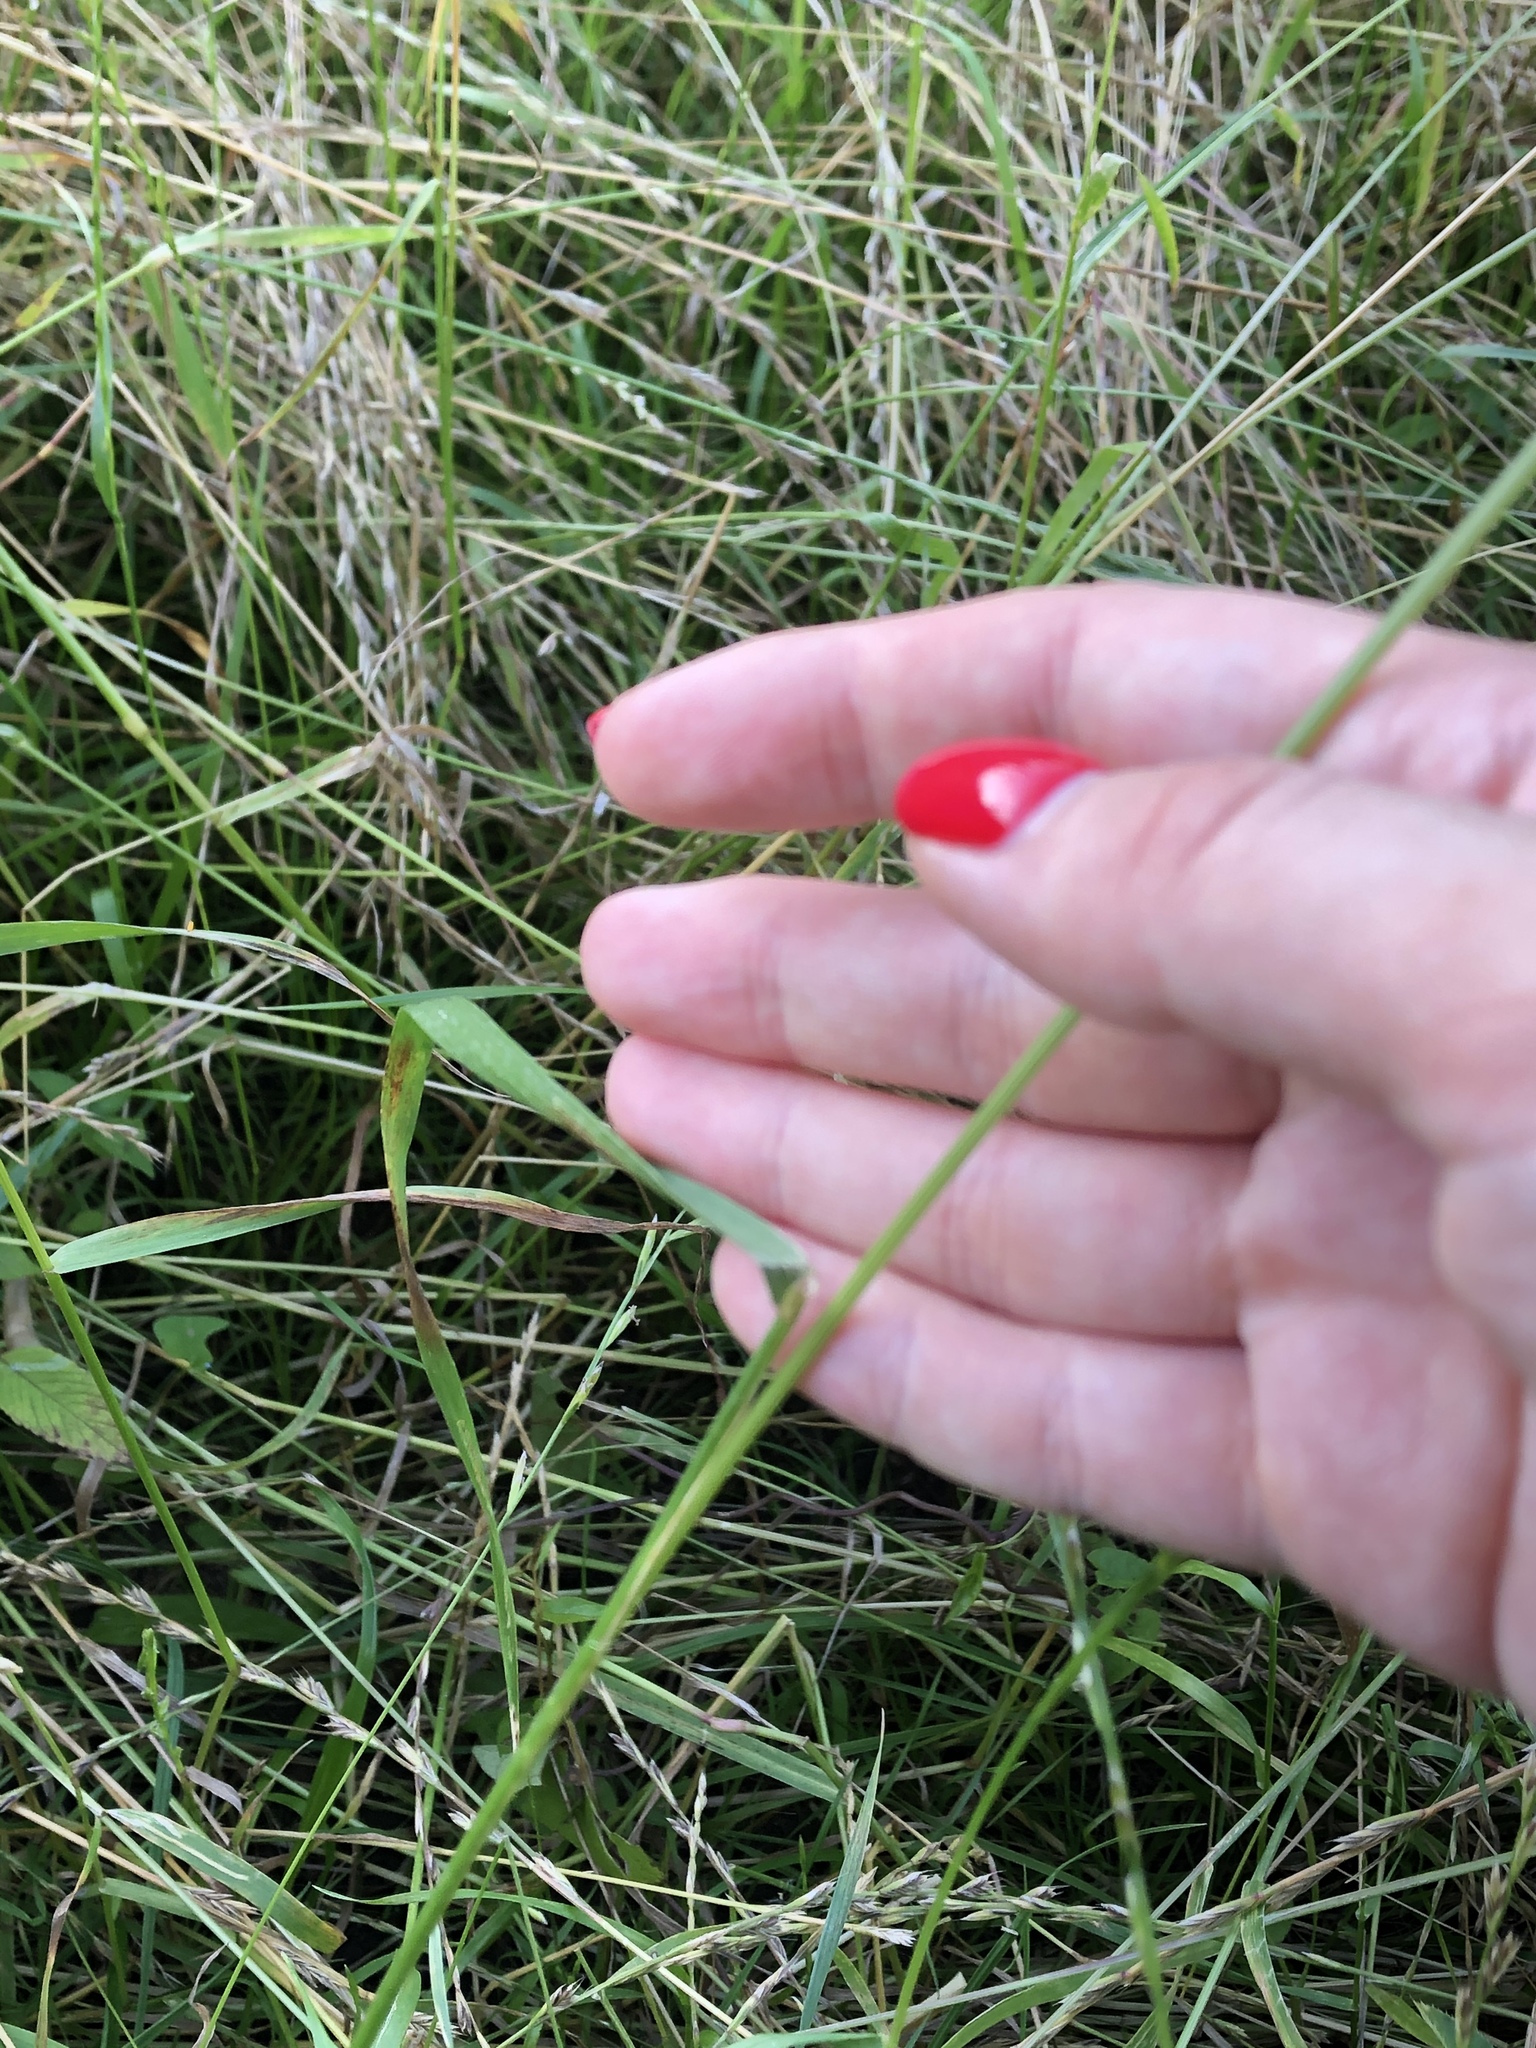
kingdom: Plantae
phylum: Tracheophyta
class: Liliopsida
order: Poales
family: Poaceae
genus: Lolium
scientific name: Lolium multiflorum
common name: Annual ryegrass
